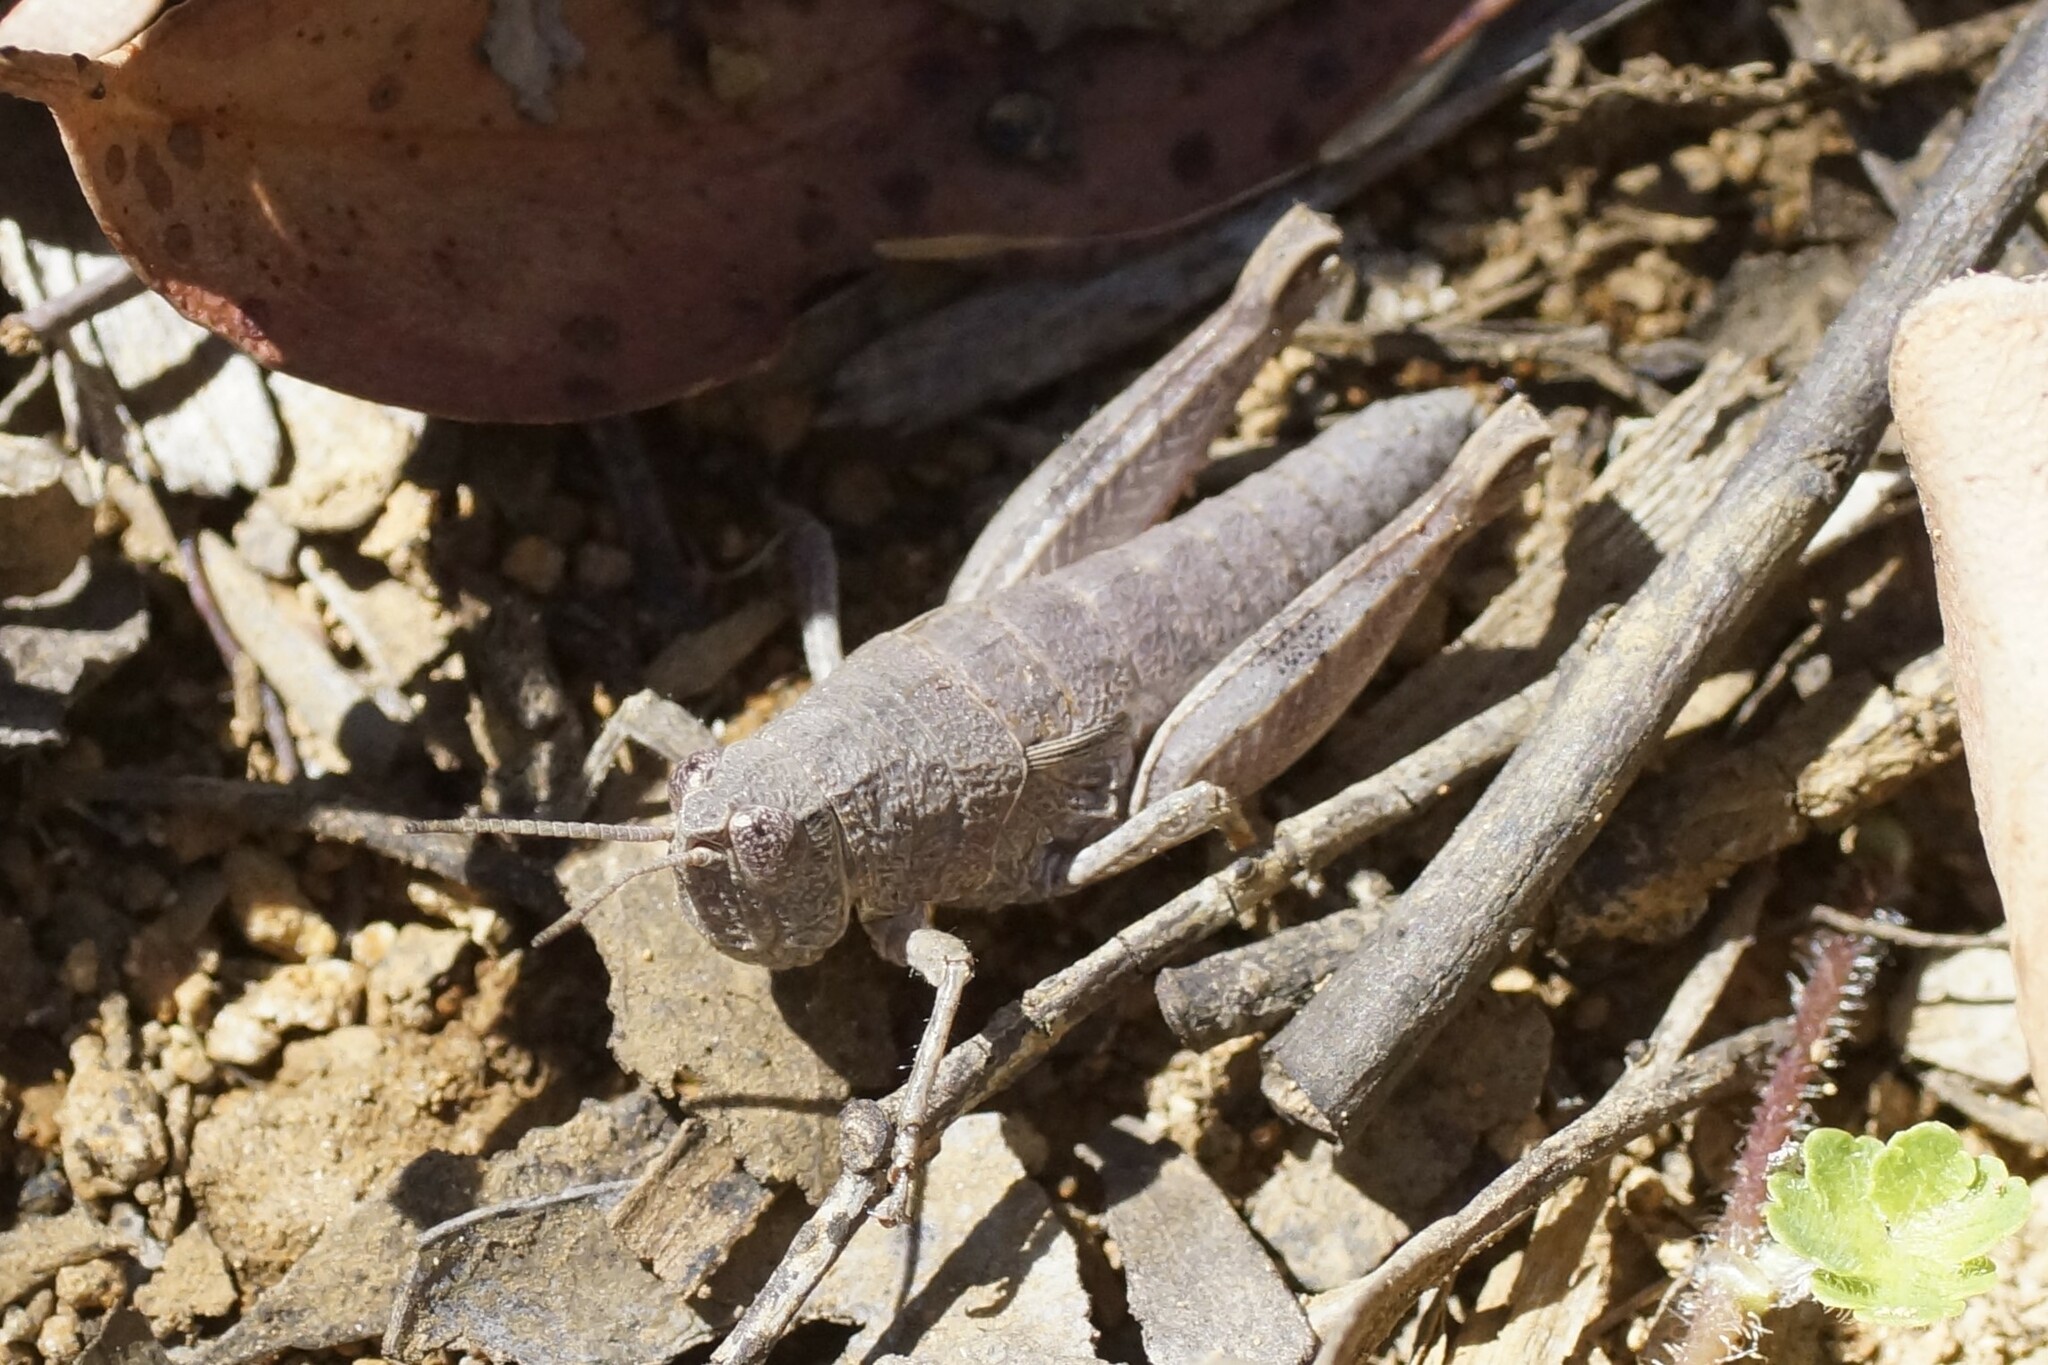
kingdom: Animalia
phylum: Arthropoda
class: Insecta
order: Orthoptera
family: Acrididae
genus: Tasmaniacris
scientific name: Tasmaniacris tasmaniensis
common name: Tasmanian grasshopper
